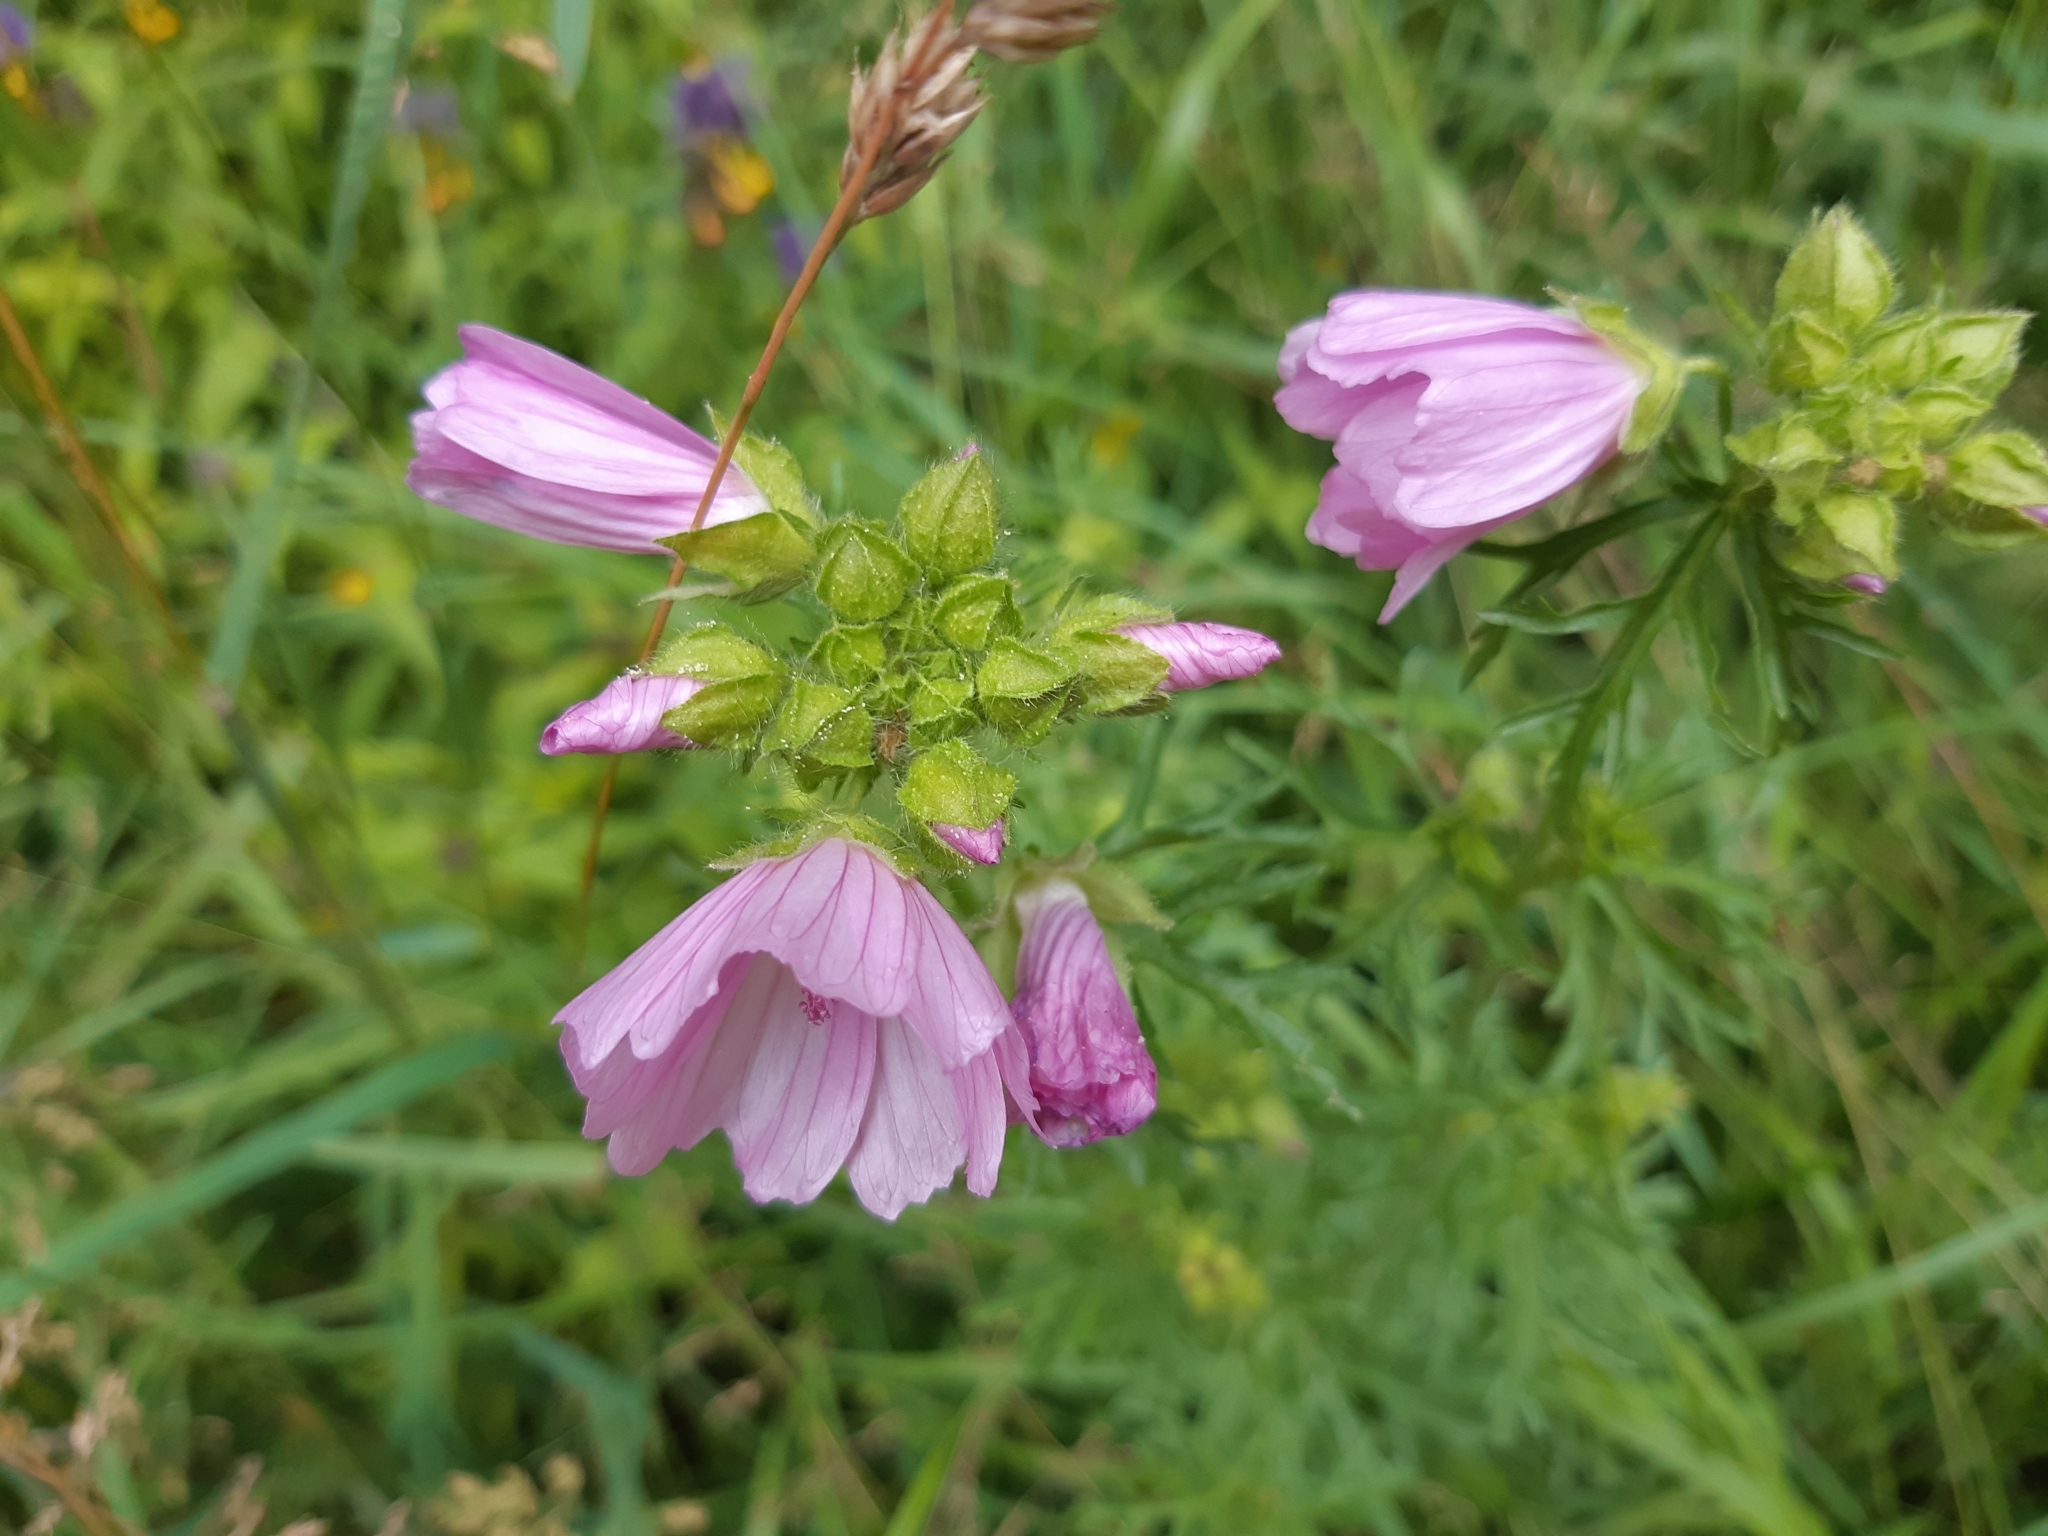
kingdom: Plantae
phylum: Tracheophyta
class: Magnoliopsida
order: Malvales
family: Malvaceae
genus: Malva
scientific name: Malva moschata
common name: Musk mallow
